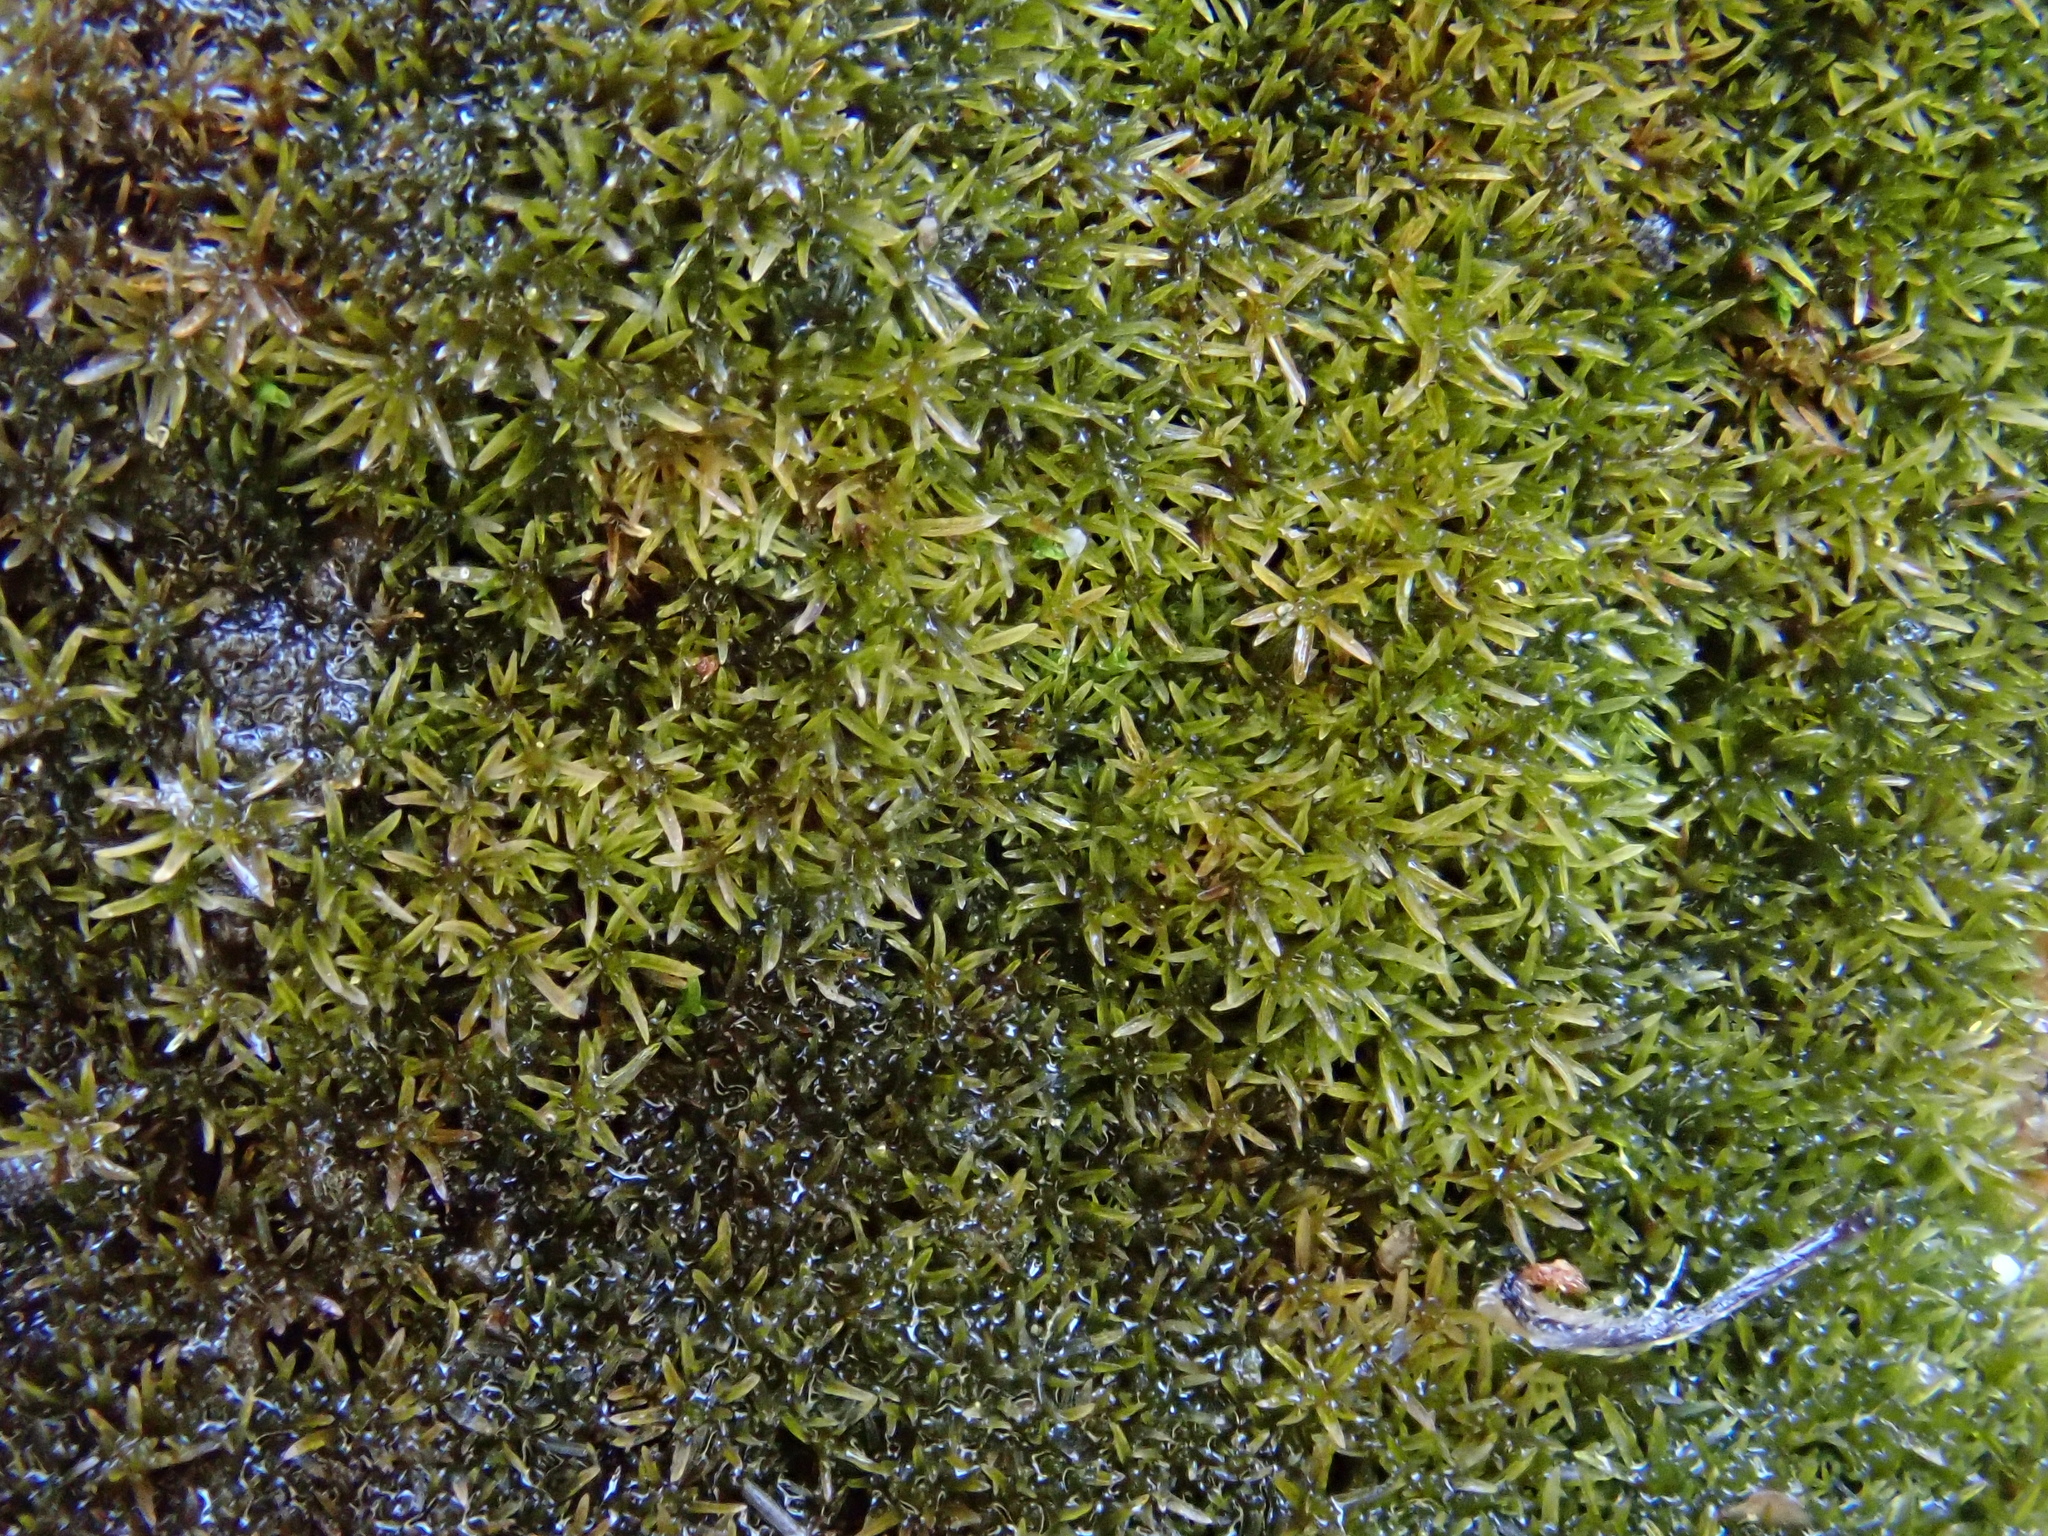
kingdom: Plantae
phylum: Bryophyta
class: Bryopsida
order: Pottiales
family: Pottiaceae
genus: Eucladium
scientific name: Eucladium verticillatum
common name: Whorled tufa-moss
